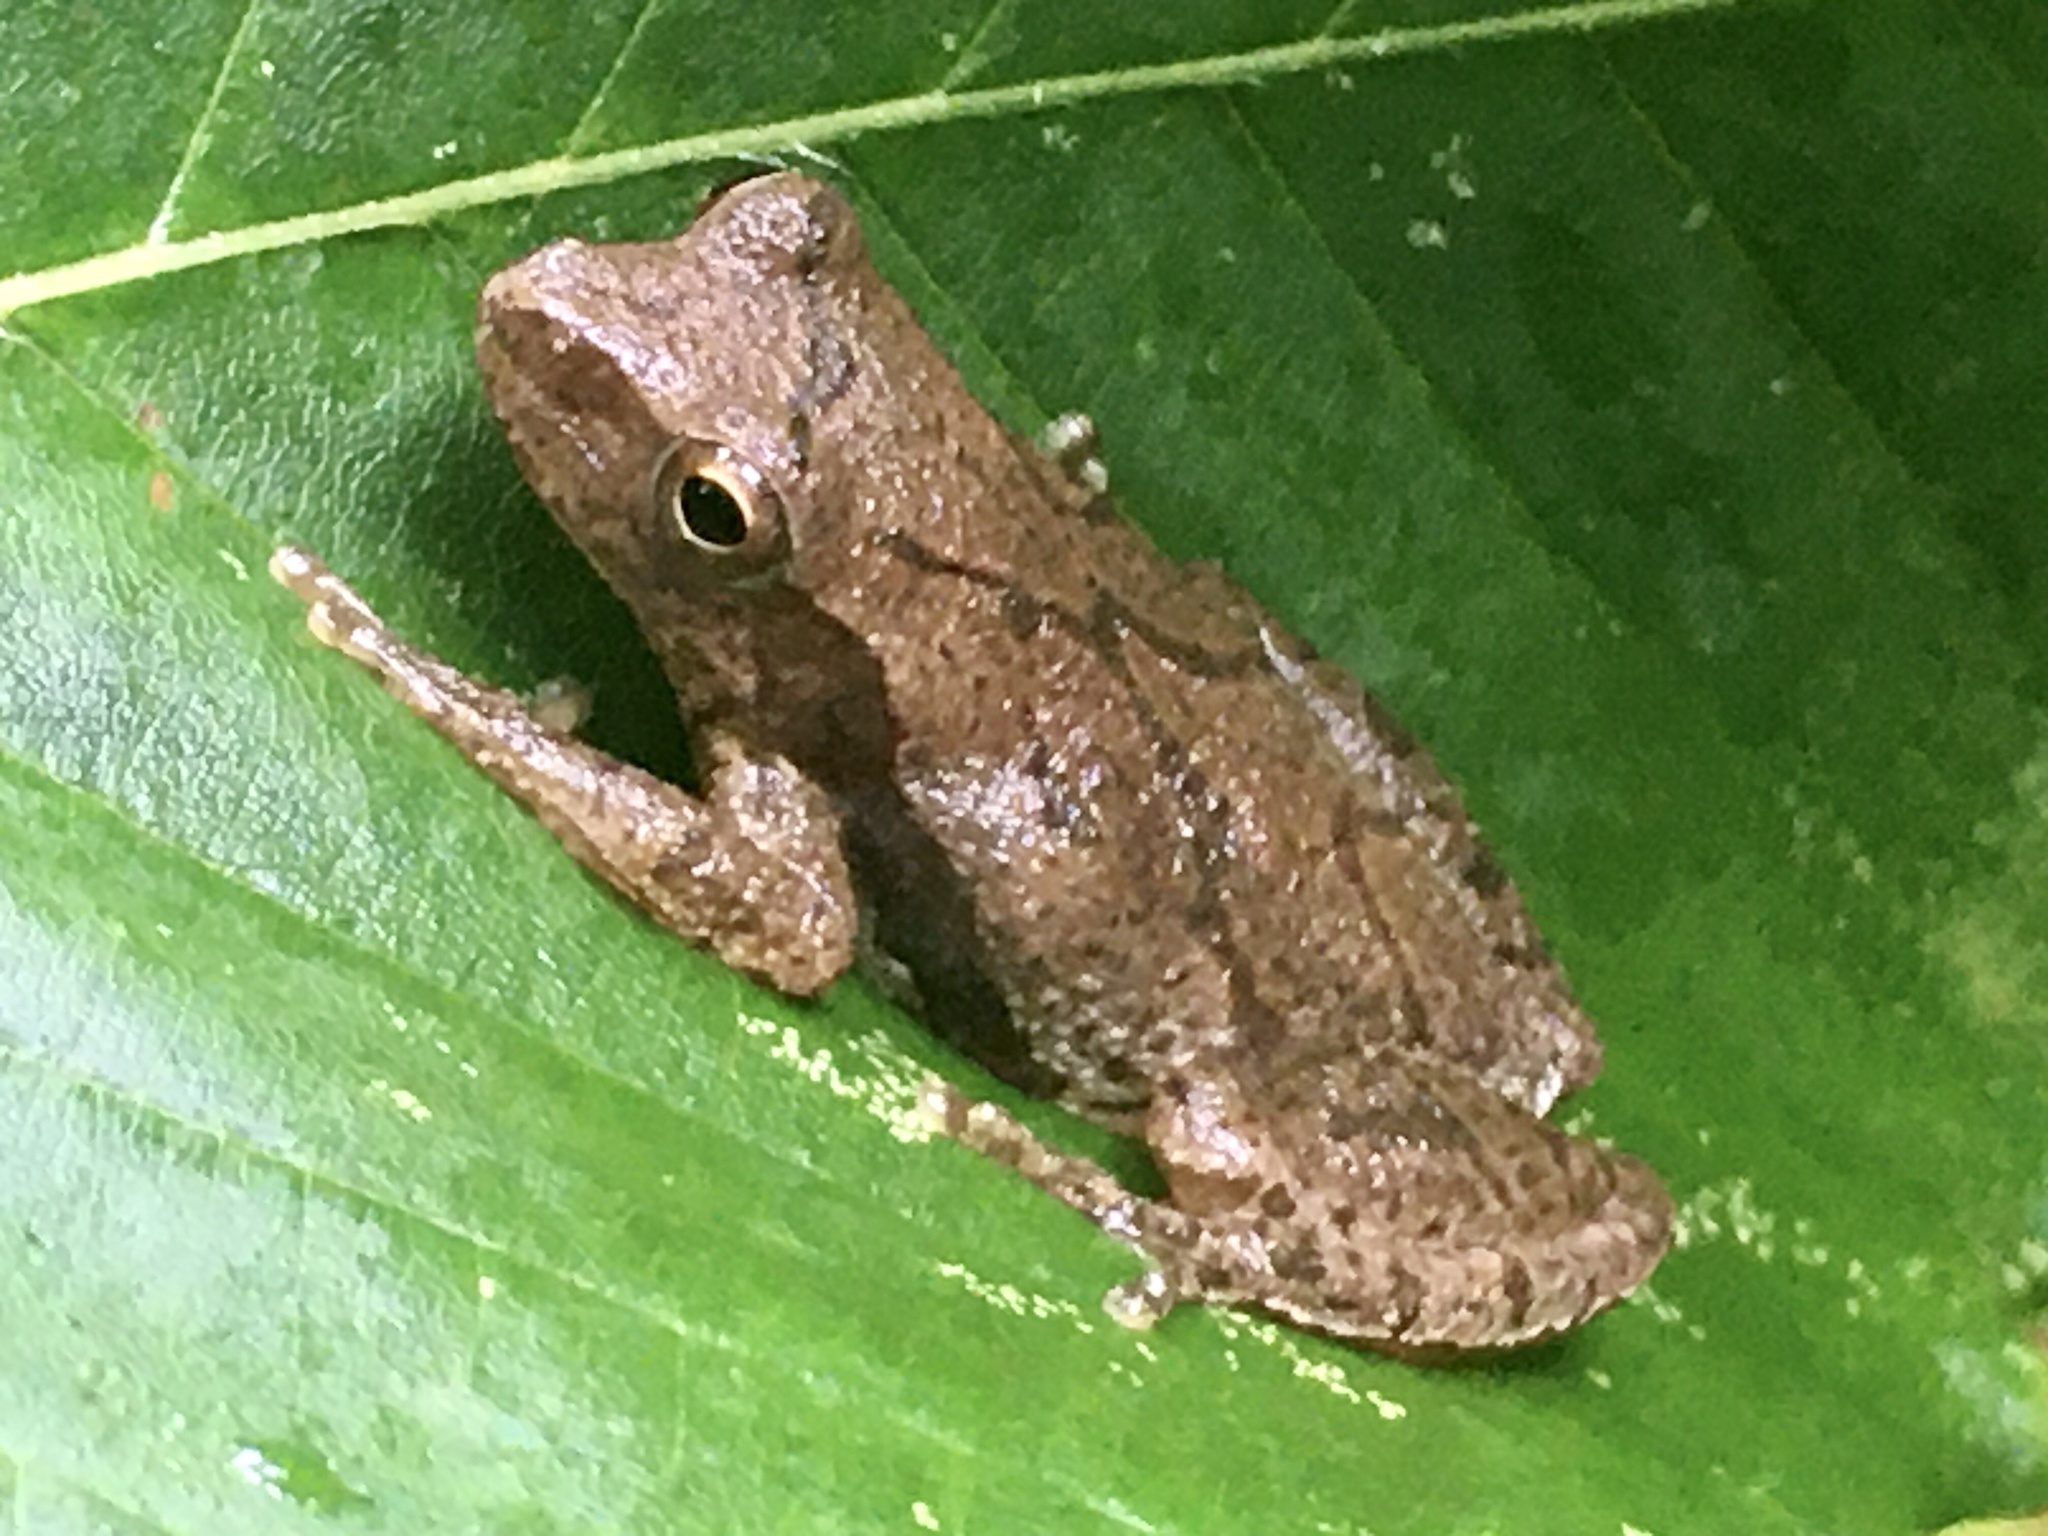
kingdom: Animalia
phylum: Chordata
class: Amphibia
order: Anura
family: Hylidae
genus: Pseudacris
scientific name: Pseudacris crucifer
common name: Spring peeper
